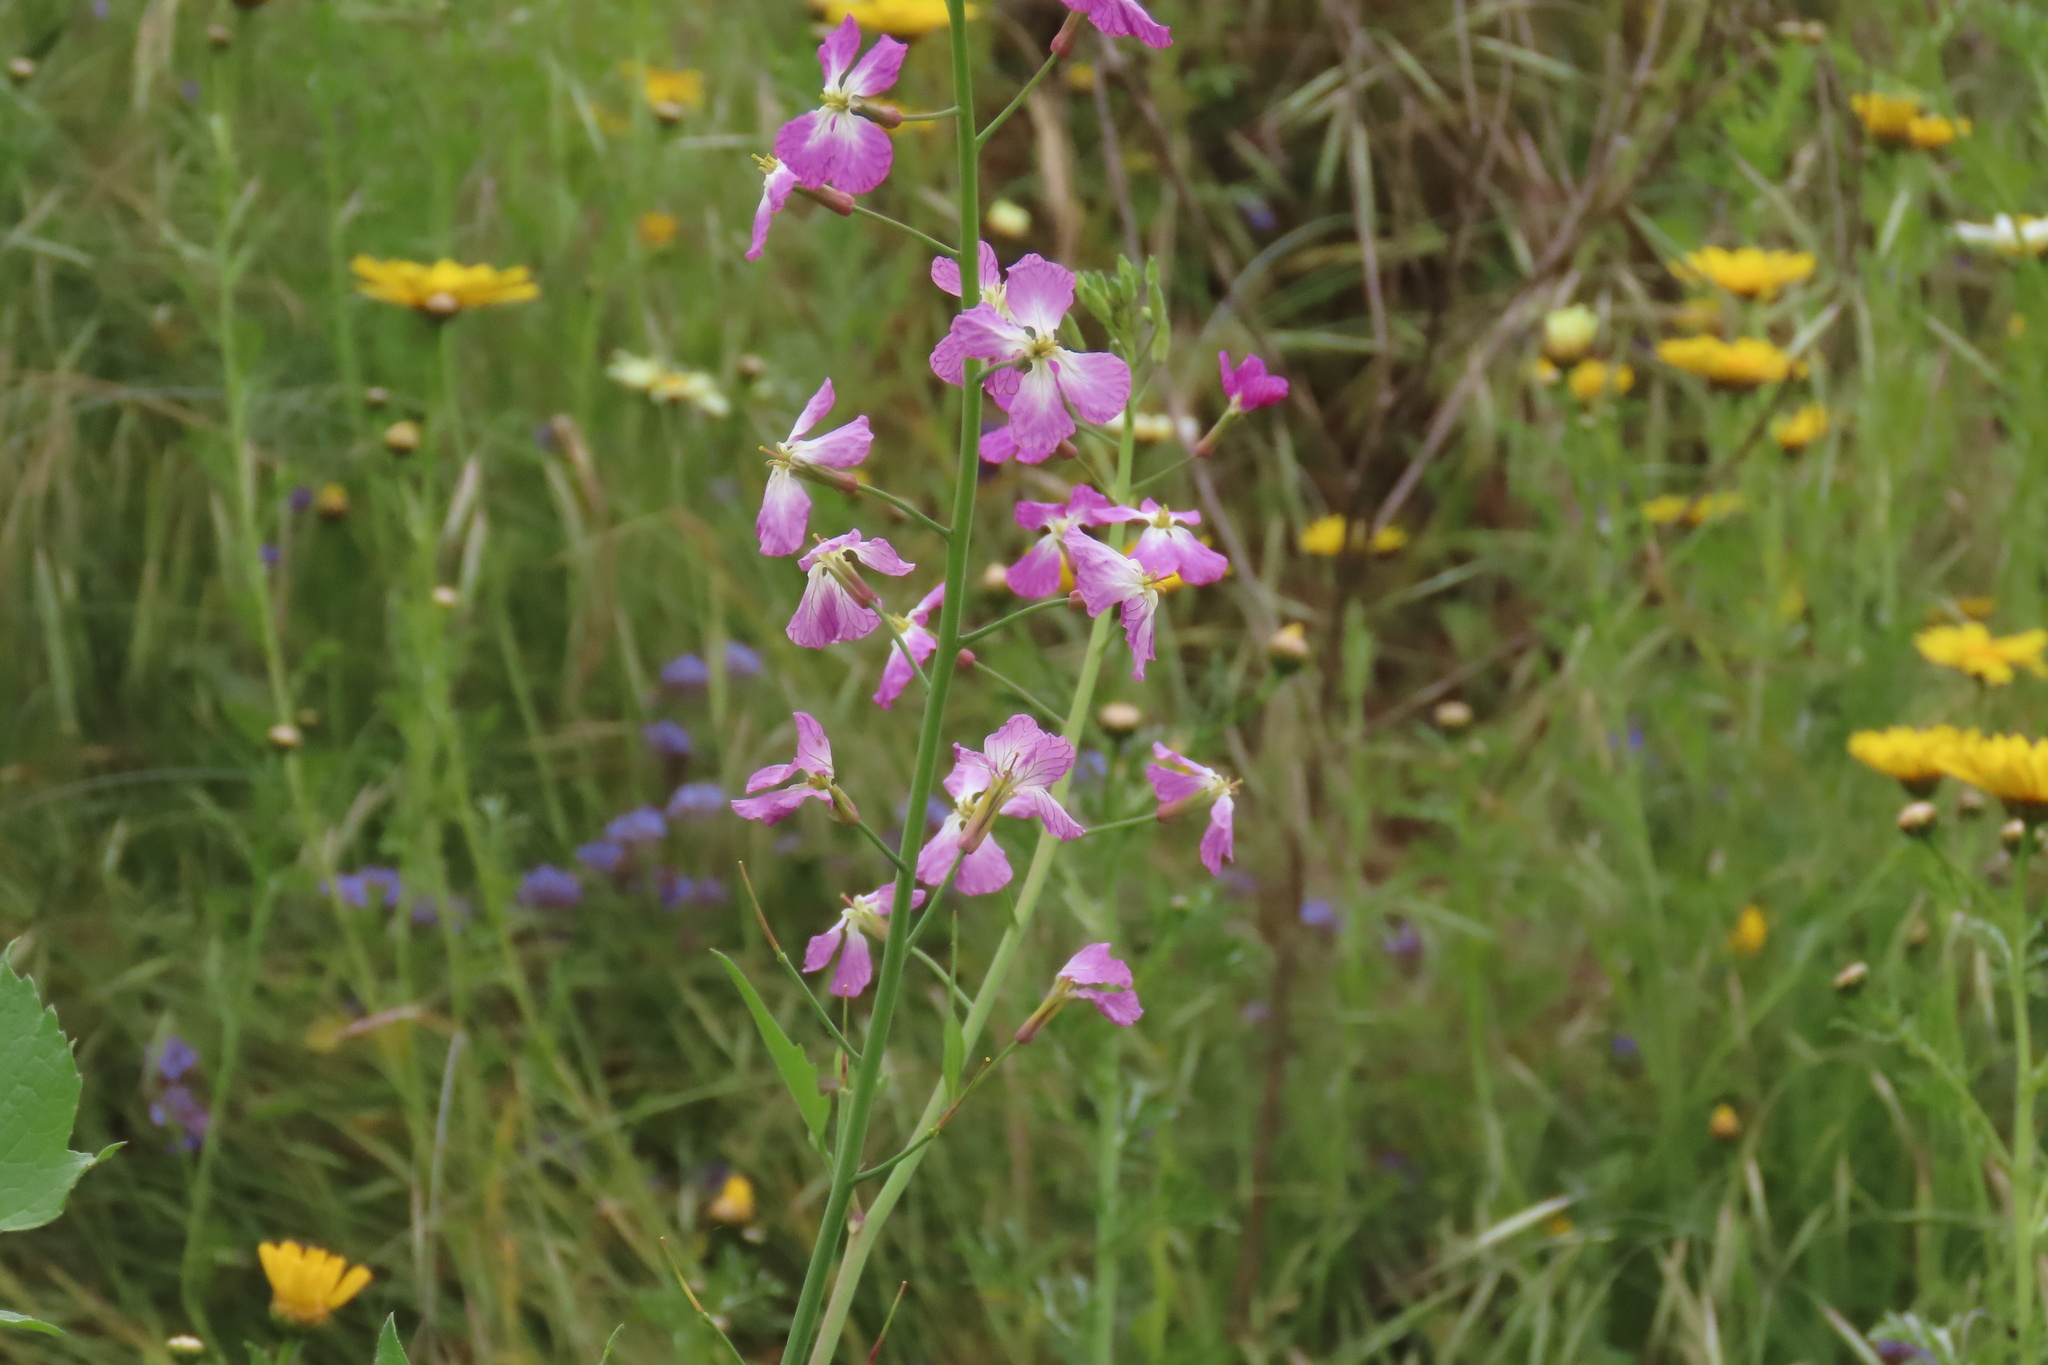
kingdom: Plantae
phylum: Tracheophyta
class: Magnoliopsida
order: Brassicales
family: Brassicaceae
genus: Raphanus
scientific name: Raphanus sativus
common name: Cultivated radish
